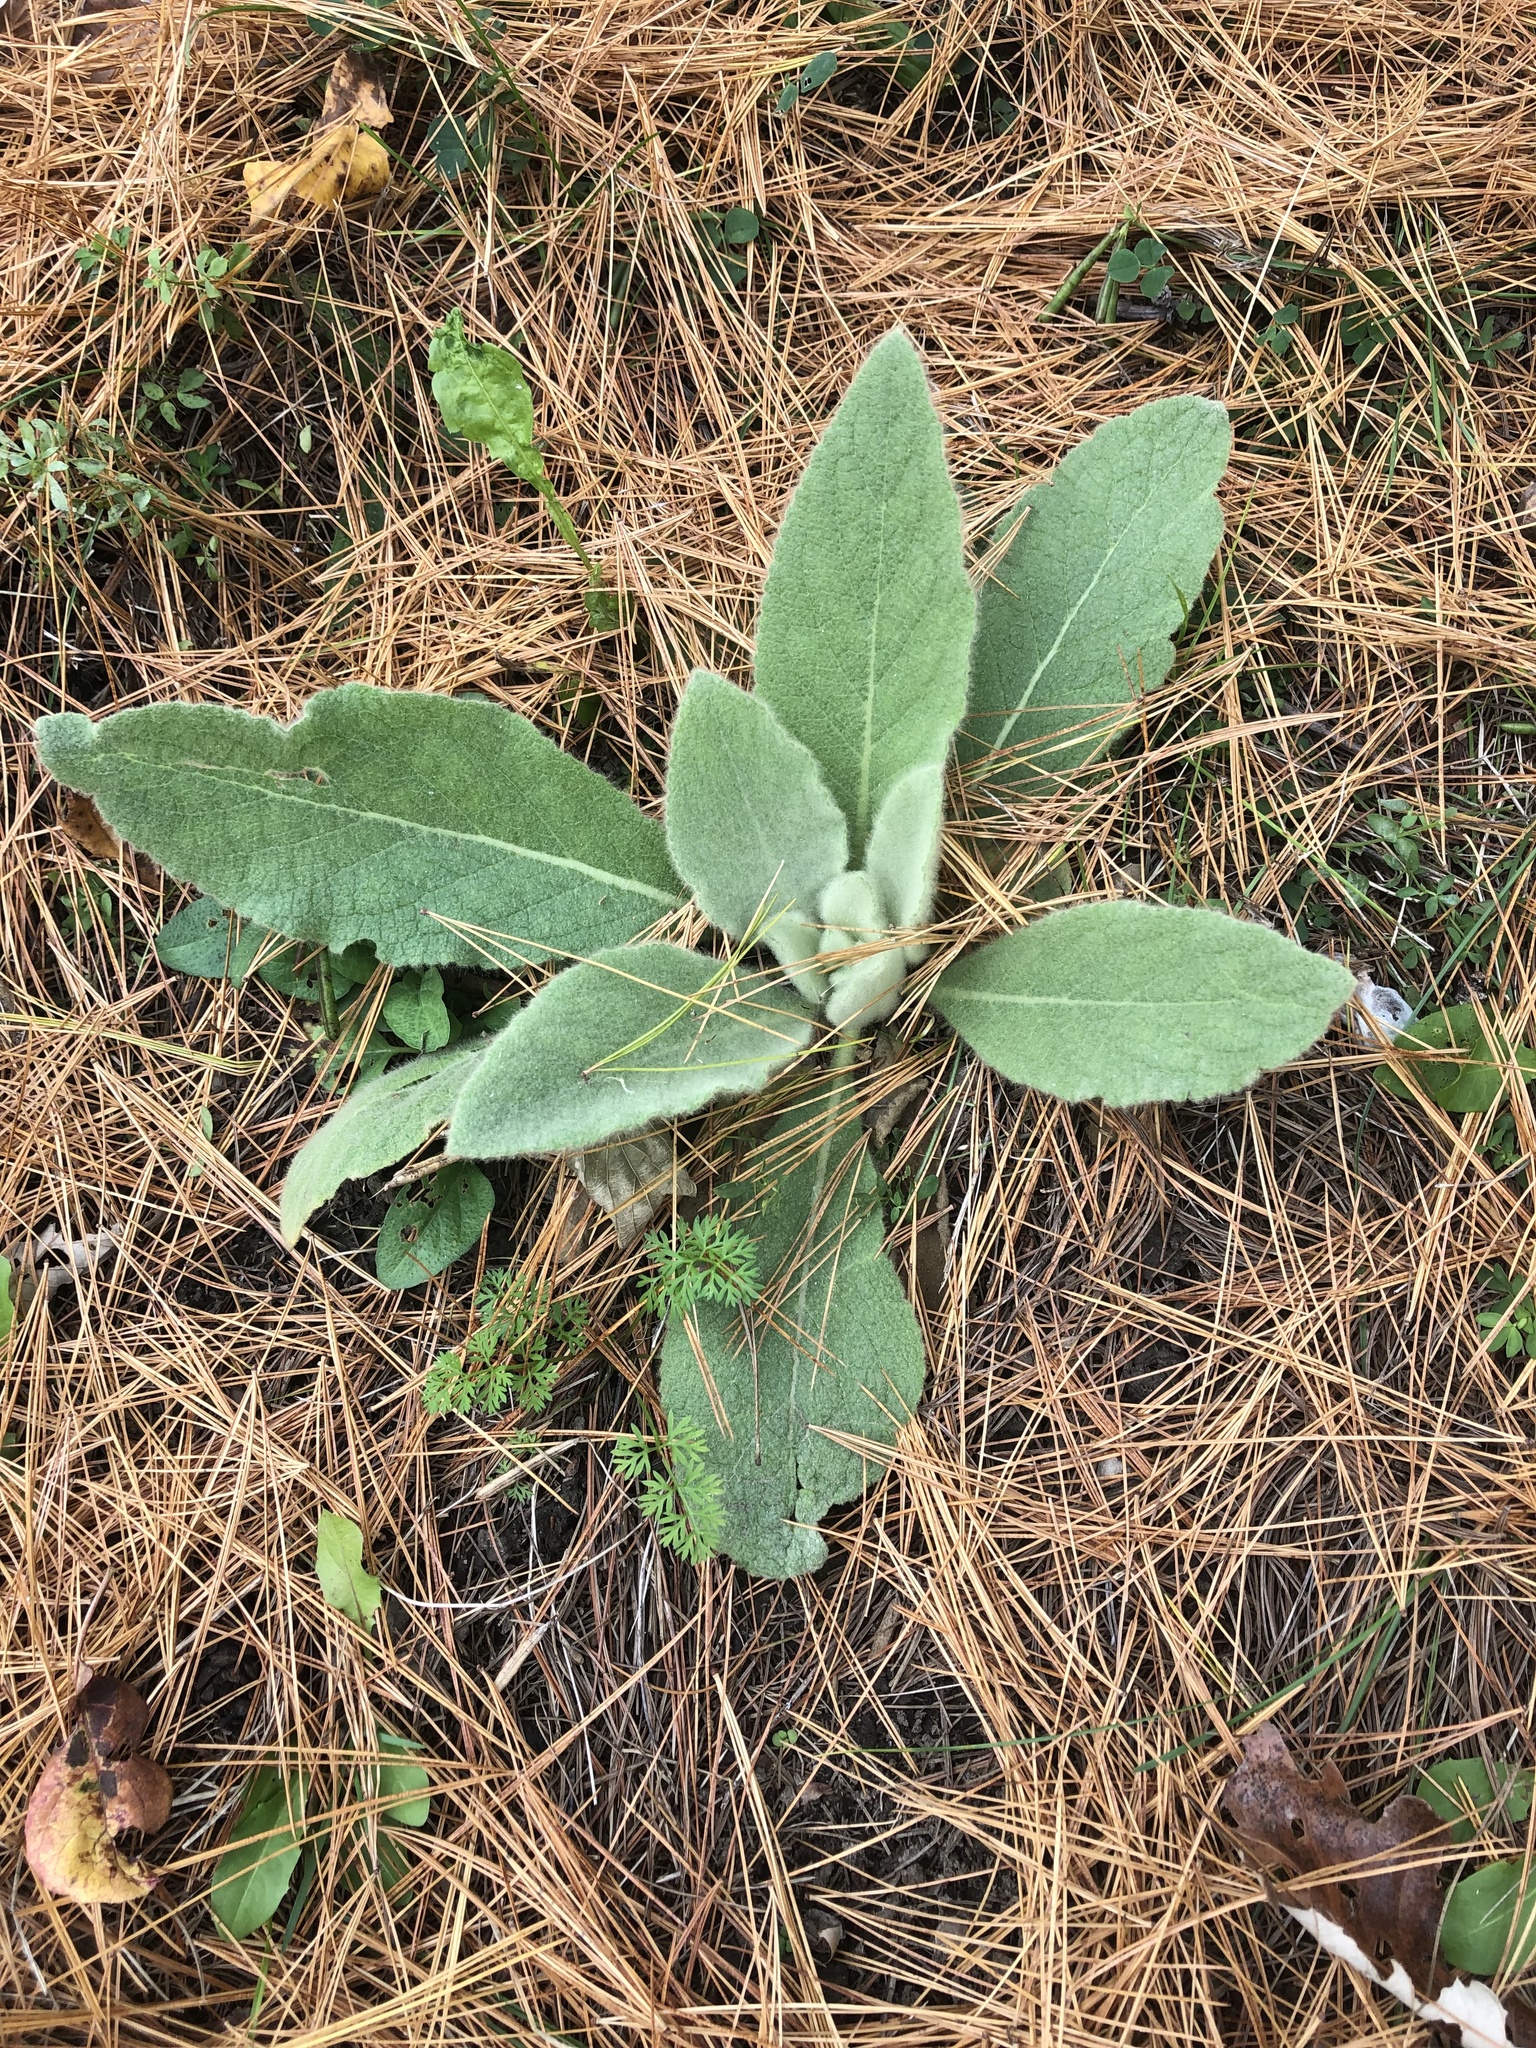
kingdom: Plantae
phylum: Tracheophyta
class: Magnoliopsida
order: Lamiales
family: Scrophulariaceae
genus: Verbascum
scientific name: Verbascum thapsus
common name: Common mullein
